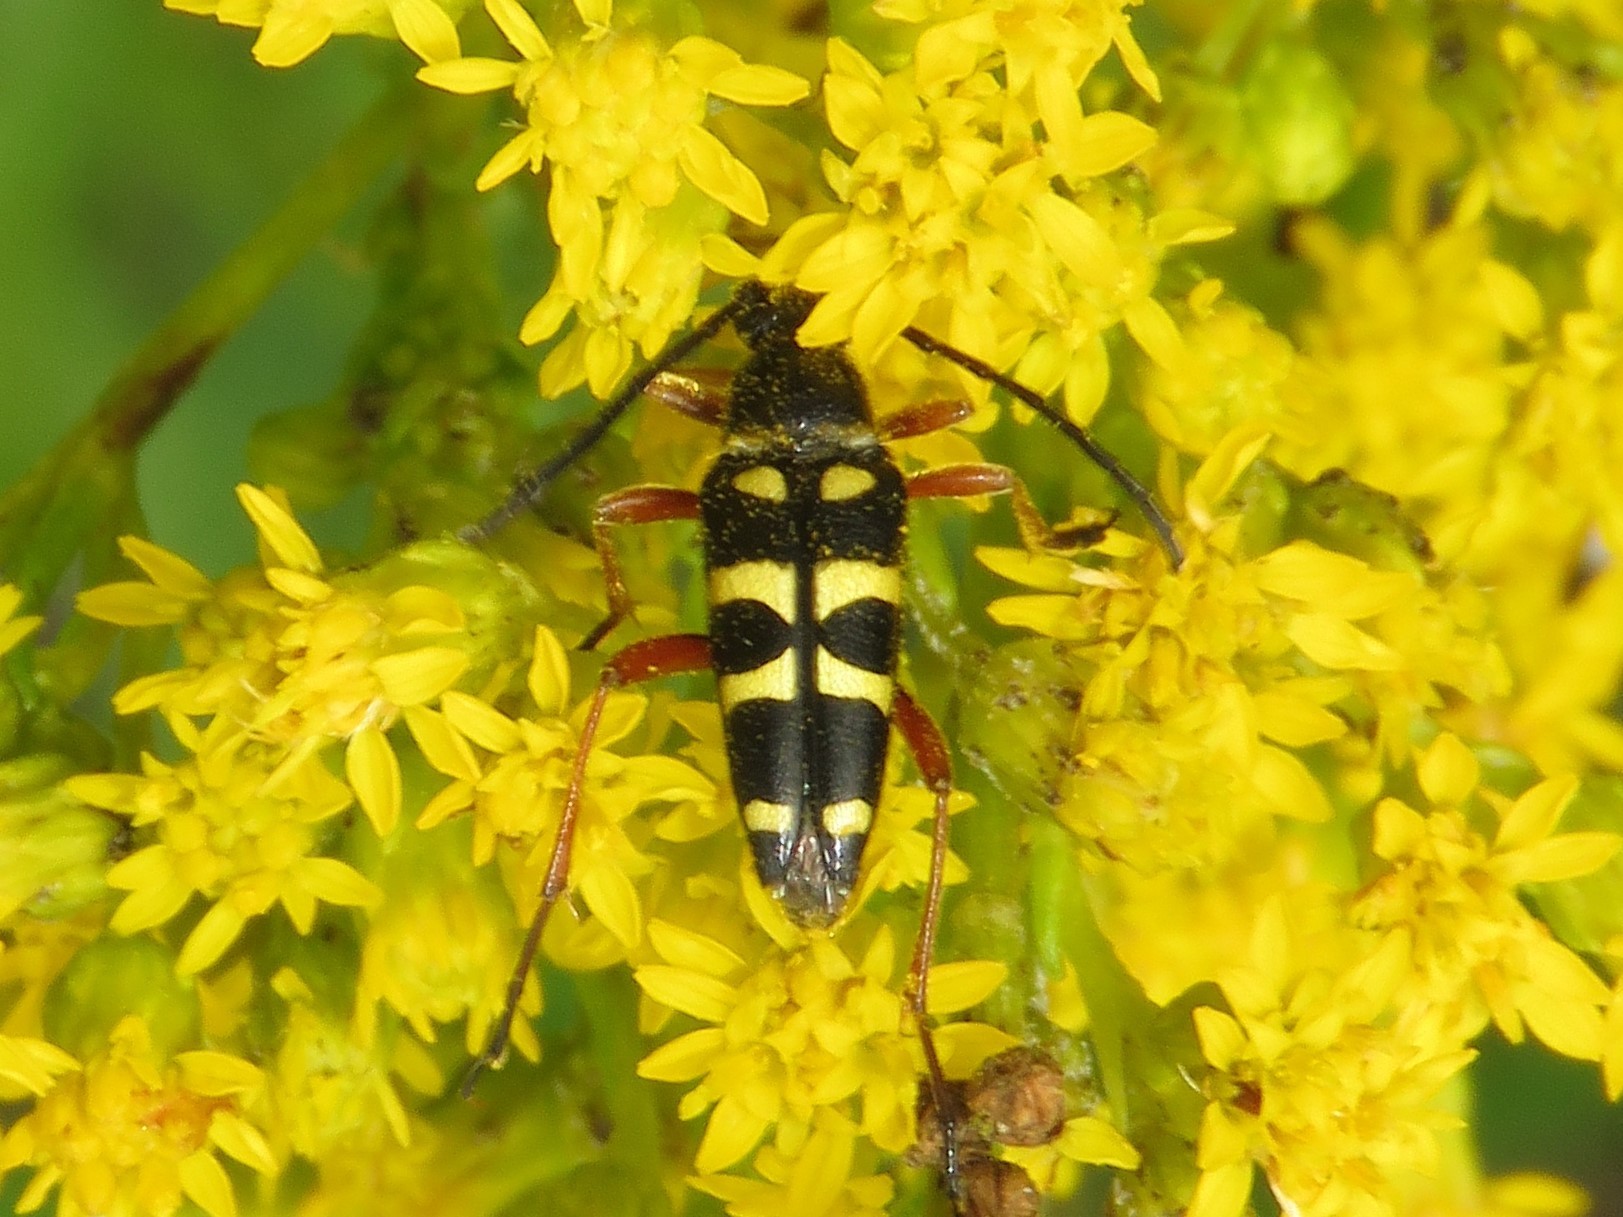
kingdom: Animalia
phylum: Arthropoda
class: Insecta
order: Coleoptera
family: Cerambycidae
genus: Typocerus
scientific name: Typocerus sparsus
